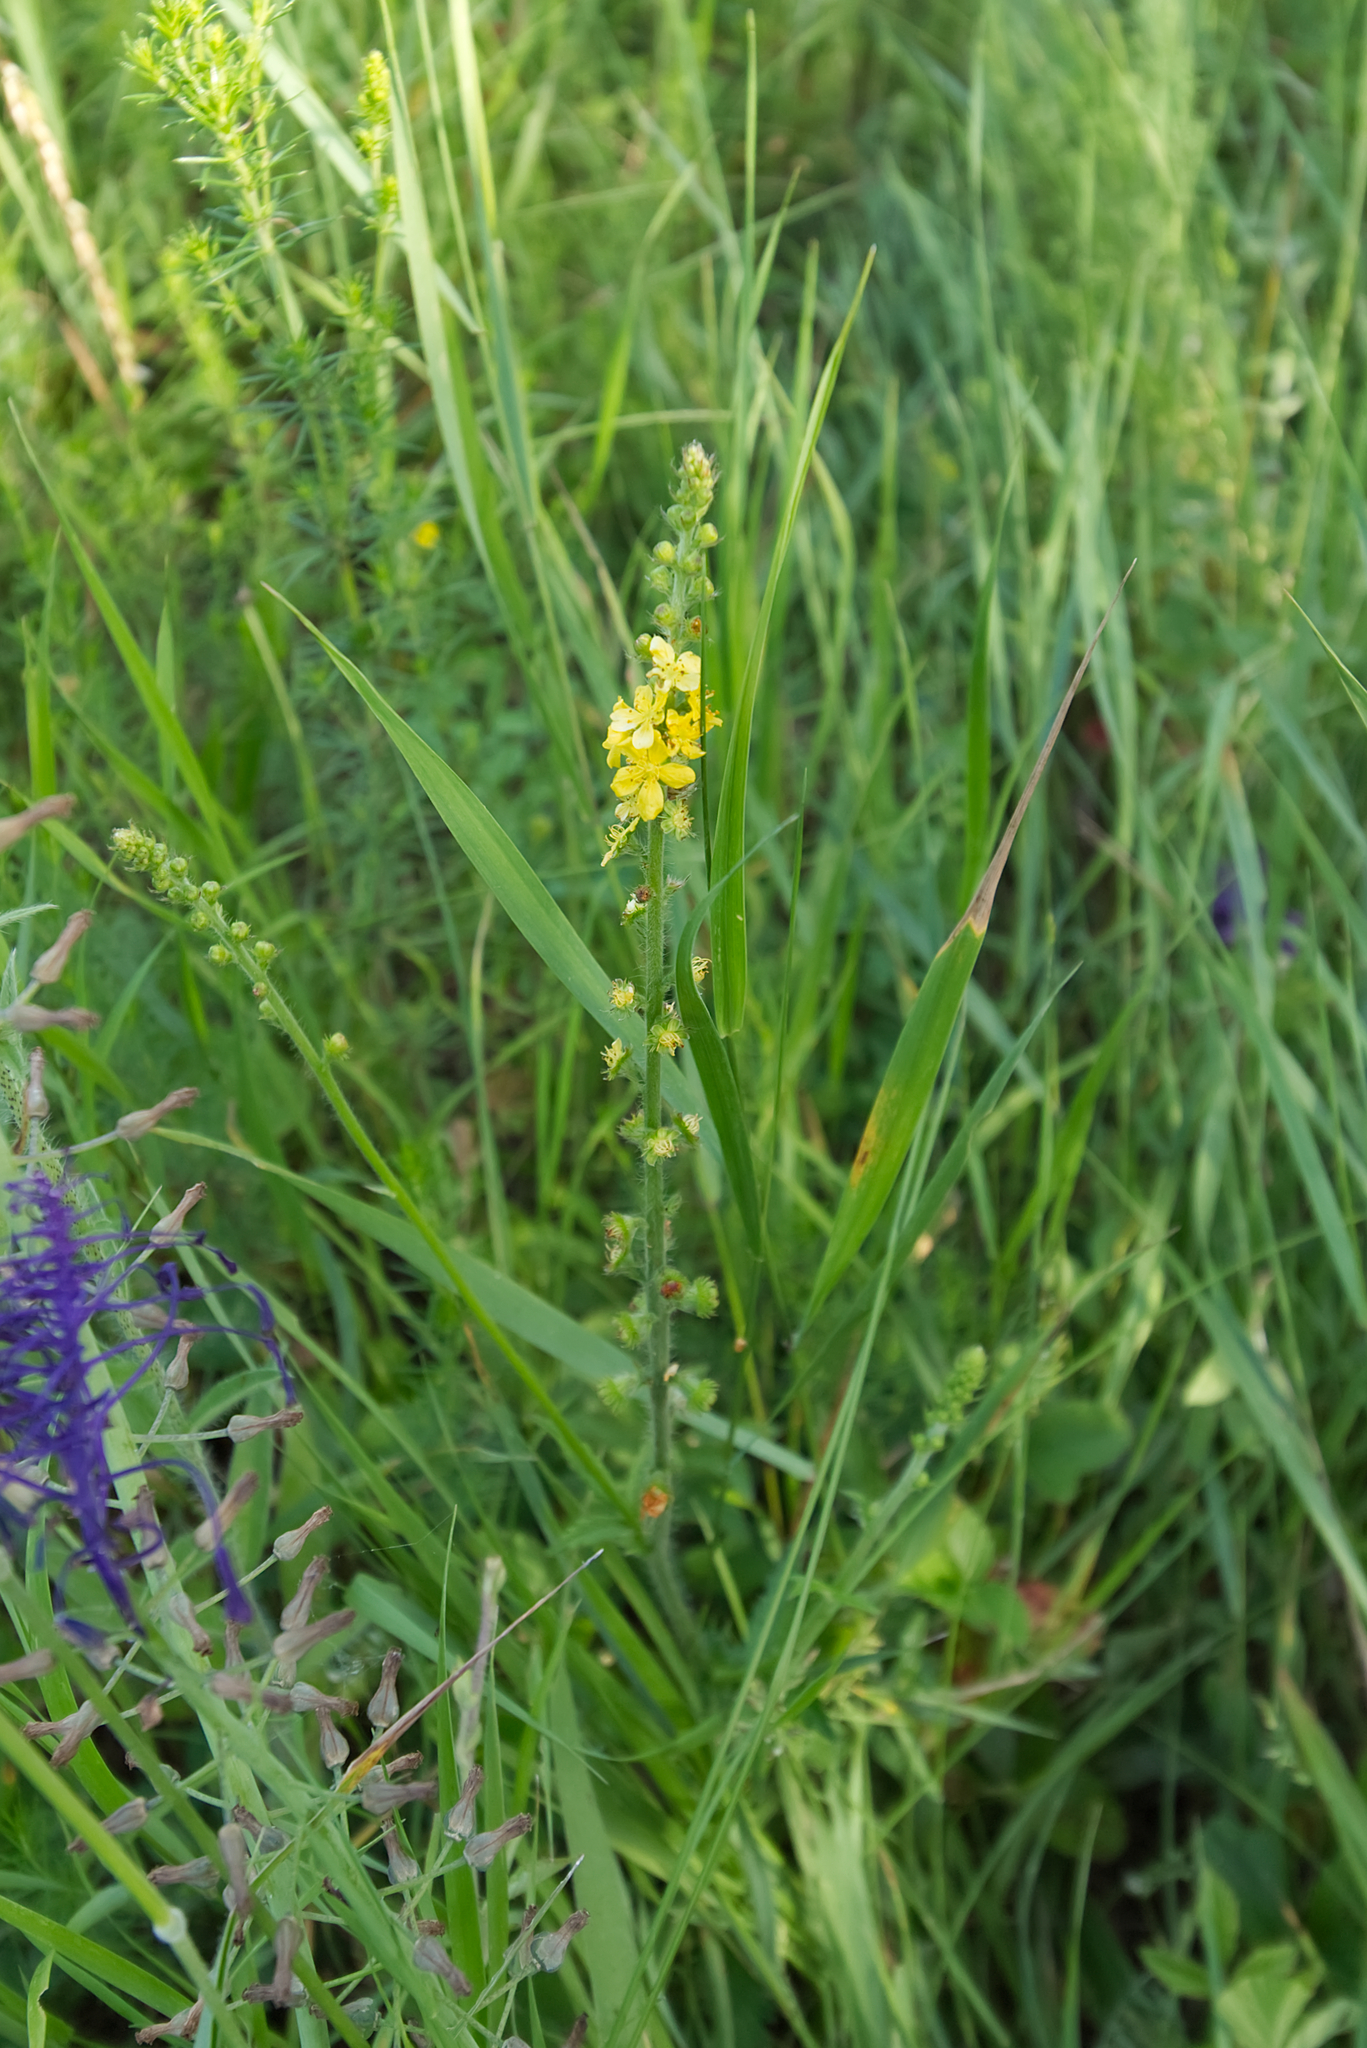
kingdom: Plantae
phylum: Tracheophyta
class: Magnoliopsida
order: Rosales
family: Rosaceae
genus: Agrimonia
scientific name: Agrimonia eupatoria
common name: Agrimony
